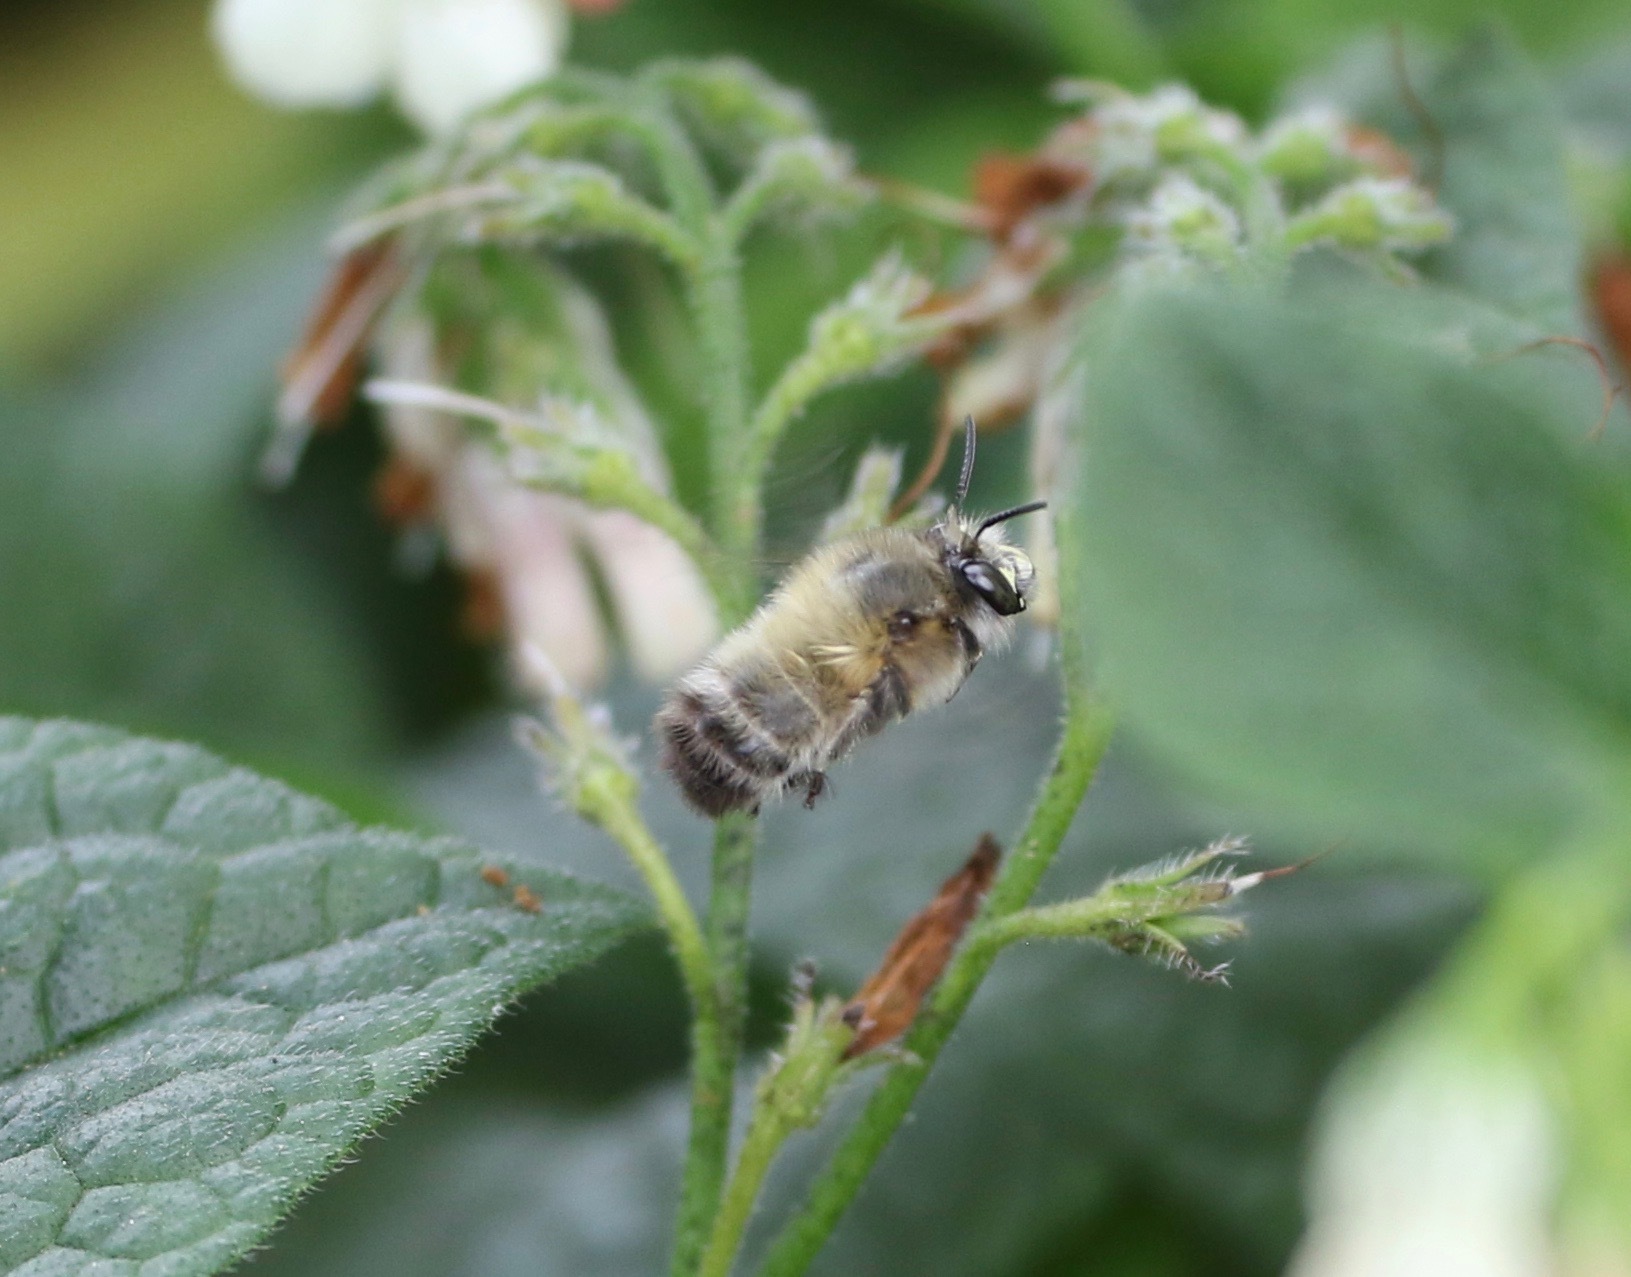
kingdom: Animalia
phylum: Arthropoda
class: Insecta
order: Hymenoptera
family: Apidae
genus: Anthophora
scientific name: Anthophora plumipes
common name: Hairy-footed flower bee
